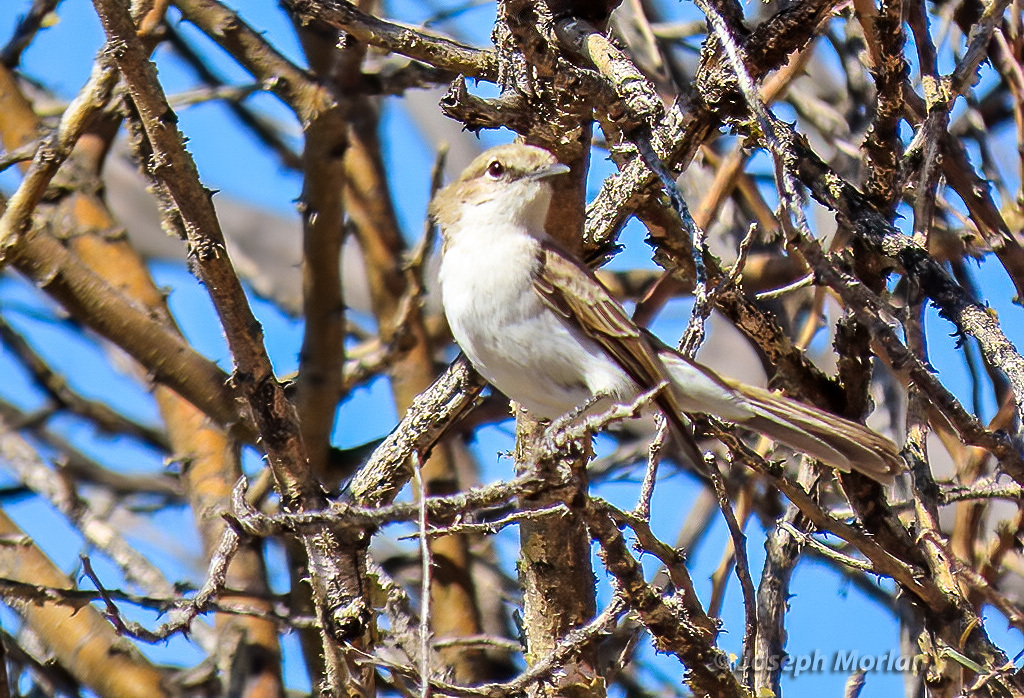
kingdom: Animalia
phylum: Chordata
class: Aves
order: Passeriformes
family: Muscicapidae
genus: Bradornis
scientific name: Bradornis mariquensis
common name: Marico flycatcher
